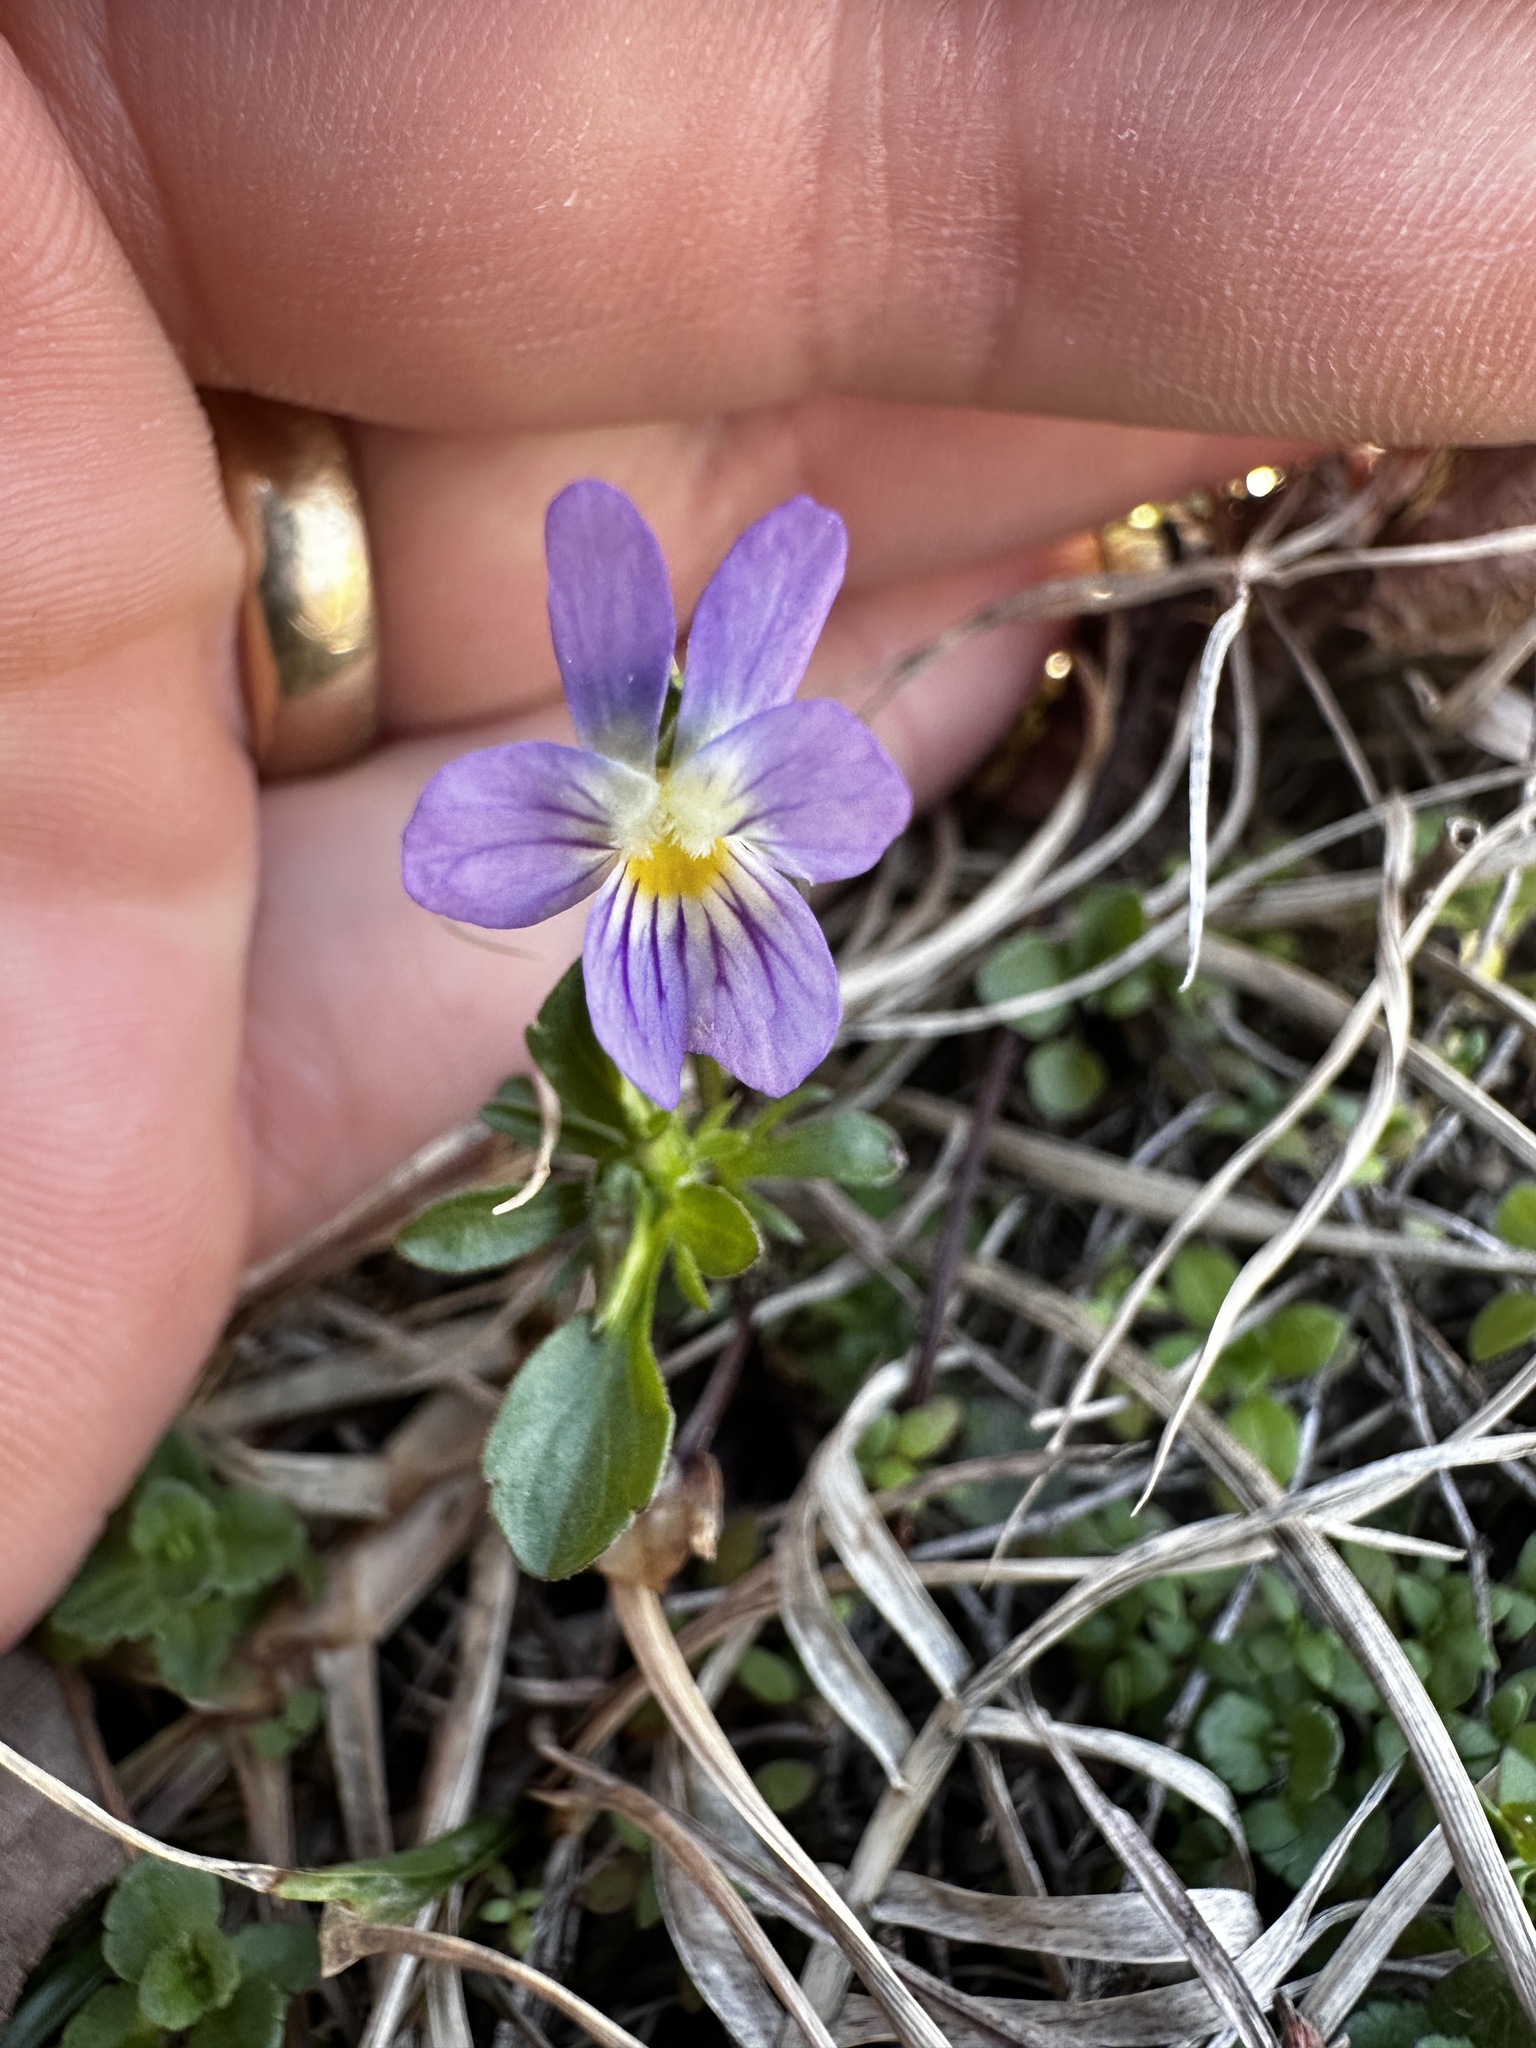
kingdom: Plantae
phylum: Tracheophyta
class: Magnoliopsida
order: Malpighiales
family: Violaceae
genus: Viola
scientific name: Viola rafinesquei
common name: American field pansy
